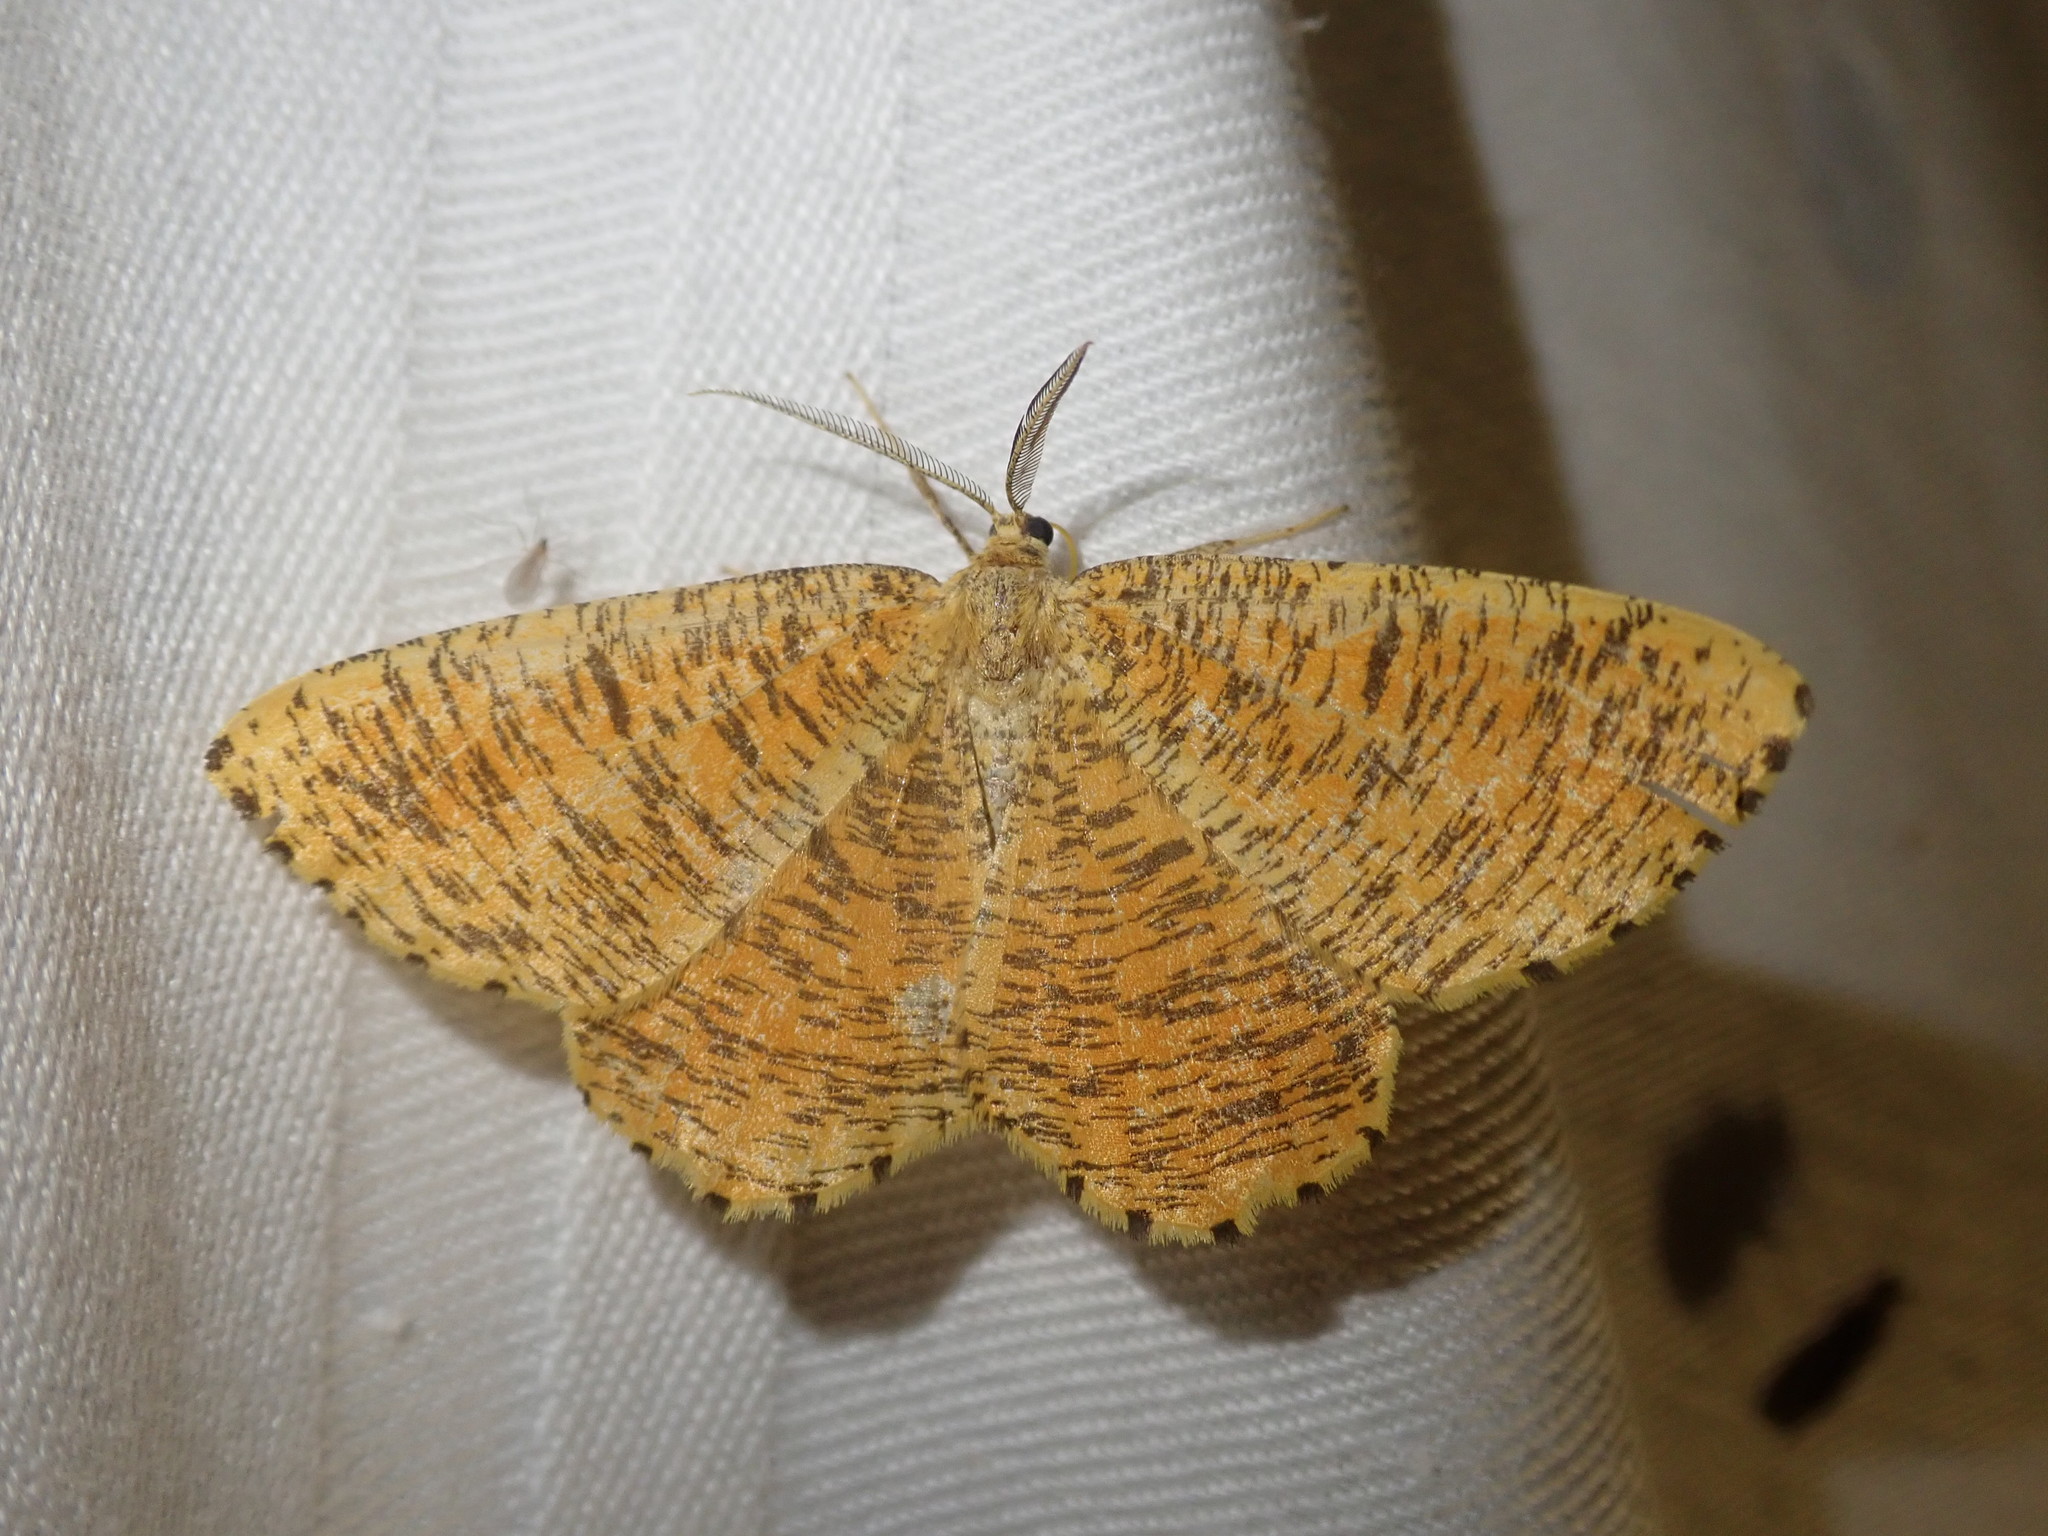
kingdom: Animalia
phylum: Arthropoda
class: Insecta
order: Lepidoptera
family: Geometridae
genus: Angerona
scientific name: Angerona prunaria
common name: Orange moth
